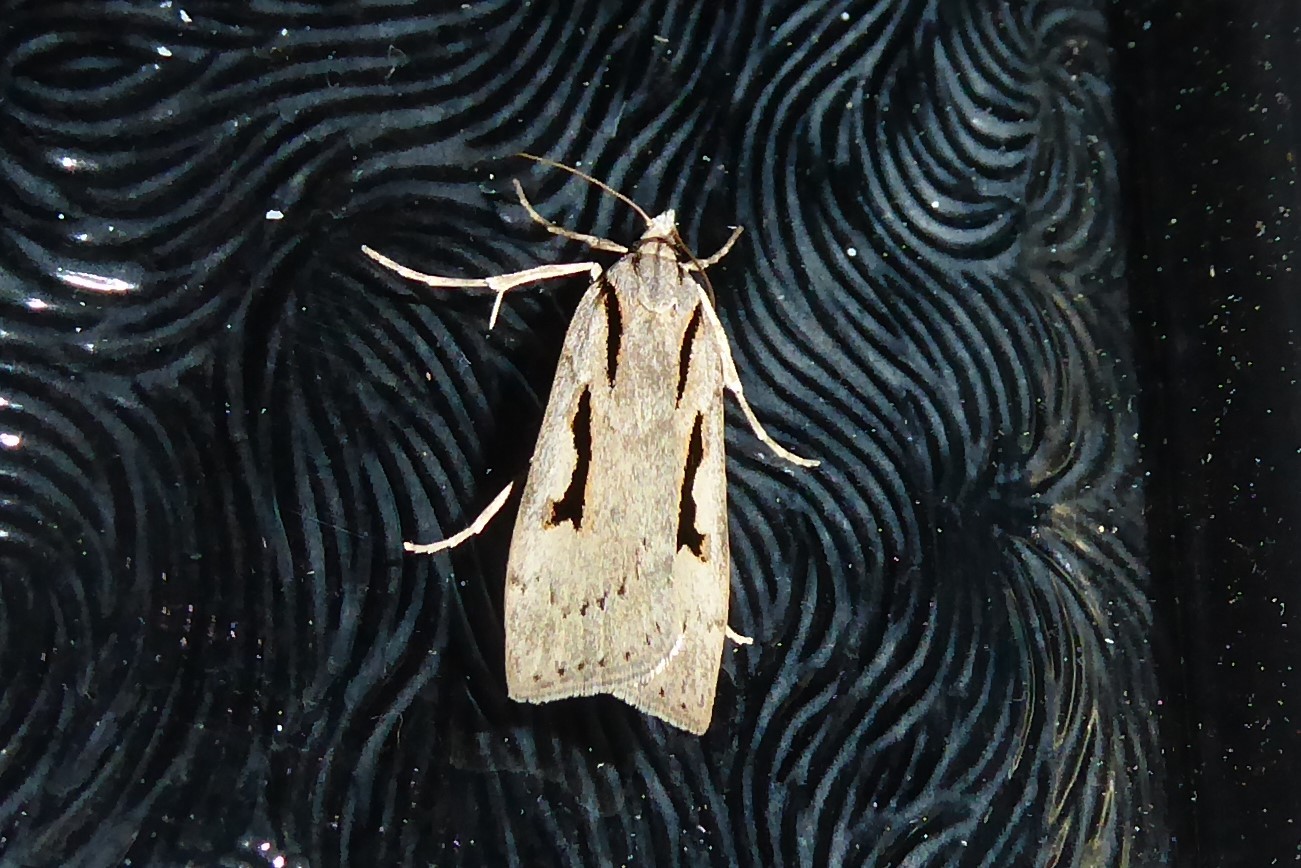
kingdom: Animalia
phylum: Arthropoda
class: Insecta
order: Lepidoptera
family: Crambidae
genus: Scoparia
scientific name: Scoparia rotuellus
